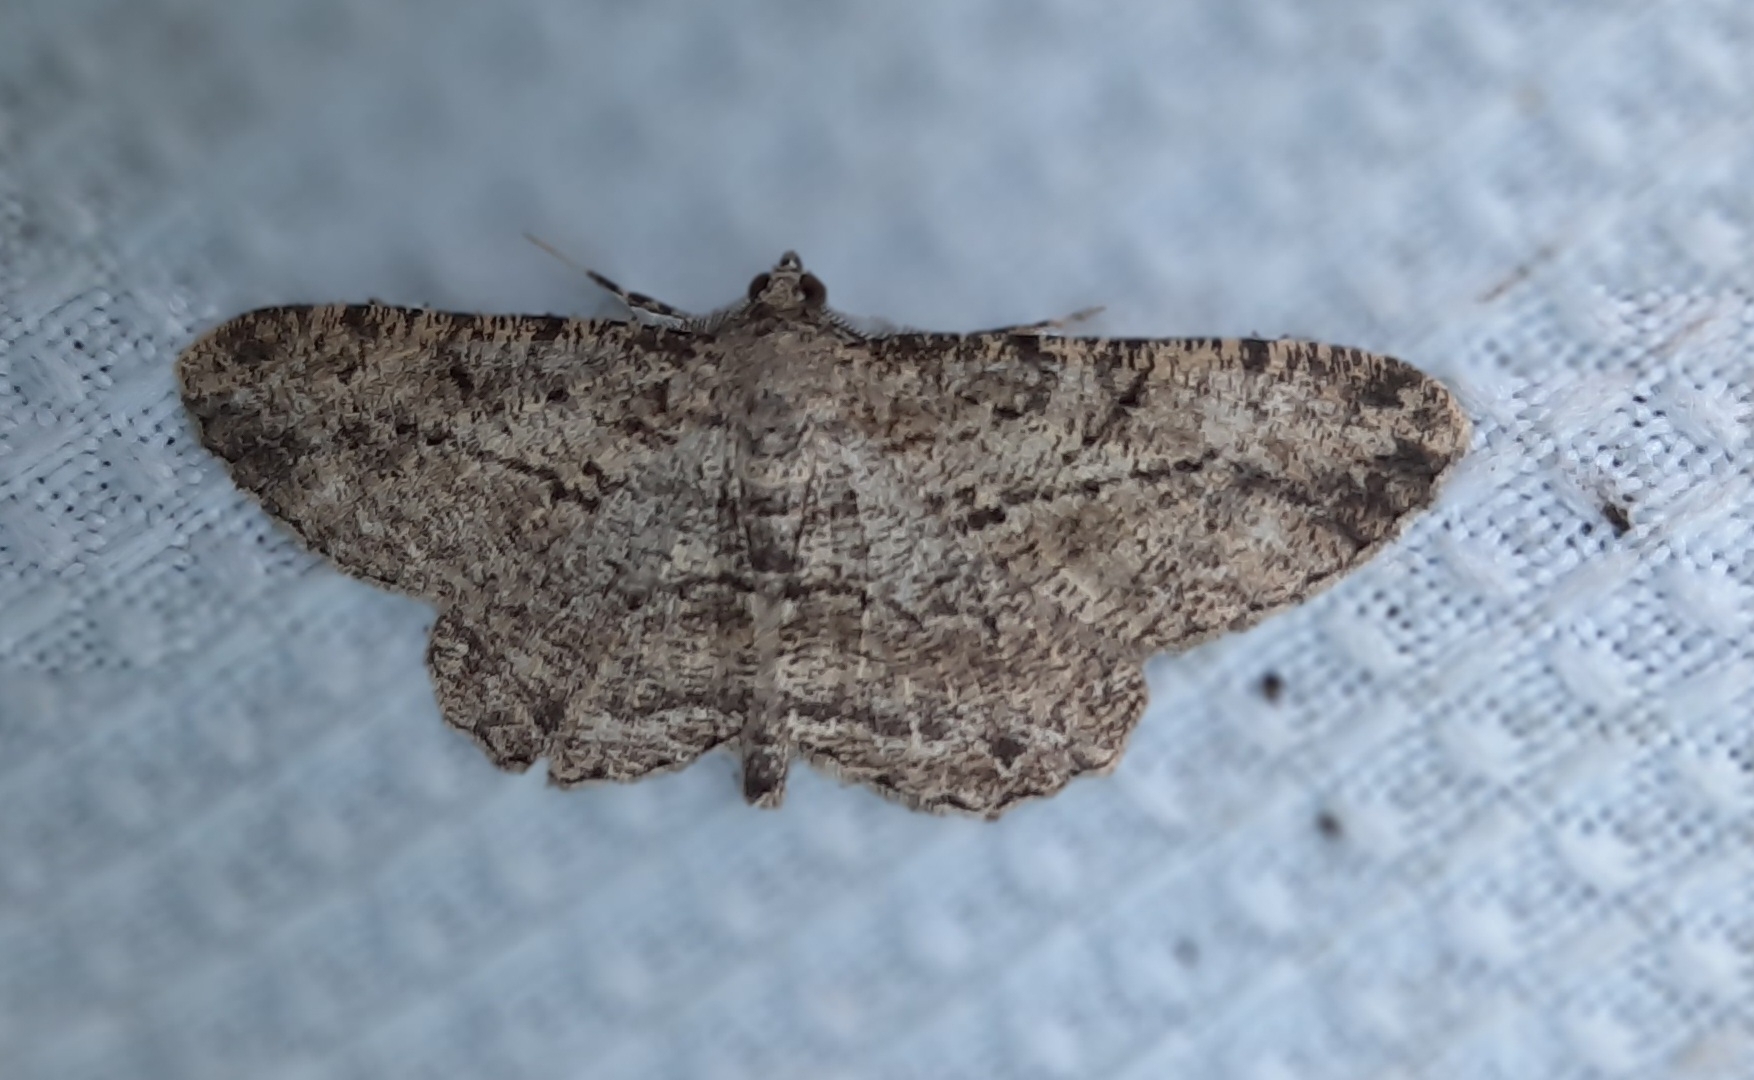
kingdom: Animalia
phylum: Arthropoda
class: Insecta
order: Lepidoptera
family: Geometridae
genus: Peribatodes
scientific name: Peribatodes rhomboidaria
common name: Willow beauty
